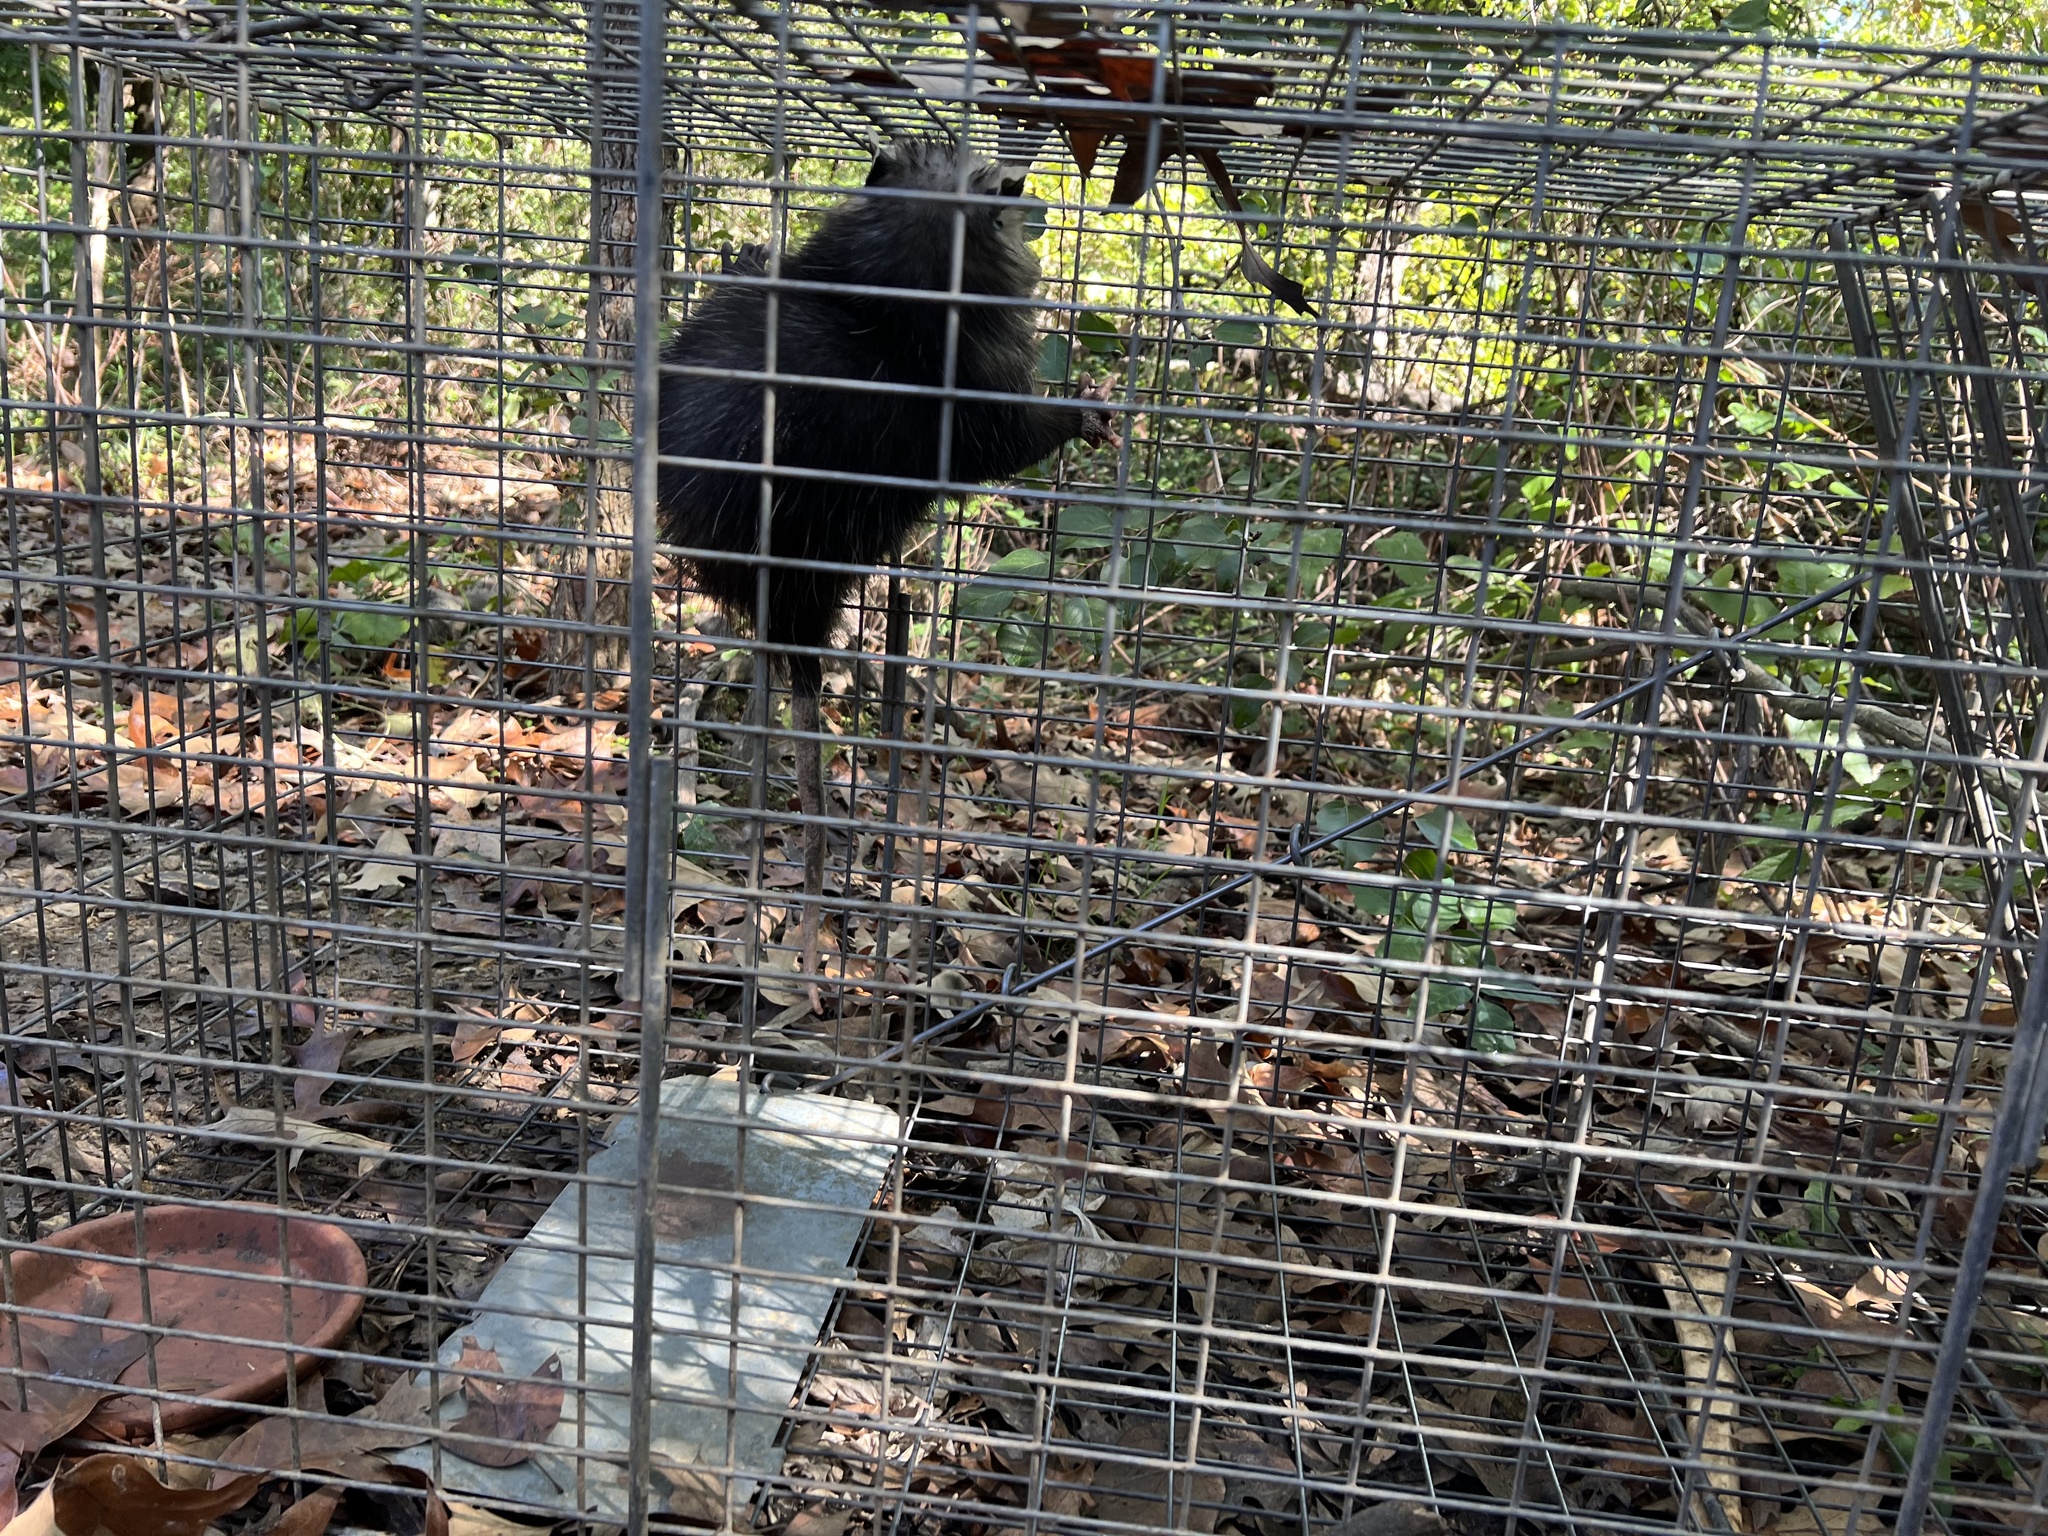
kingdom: Animalia
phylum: Chordata
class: Mammalia
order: Didelphimorphia
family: Didelphidae
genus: Didelphis
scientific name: Didelphis virginiana
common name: Virginia opossum
